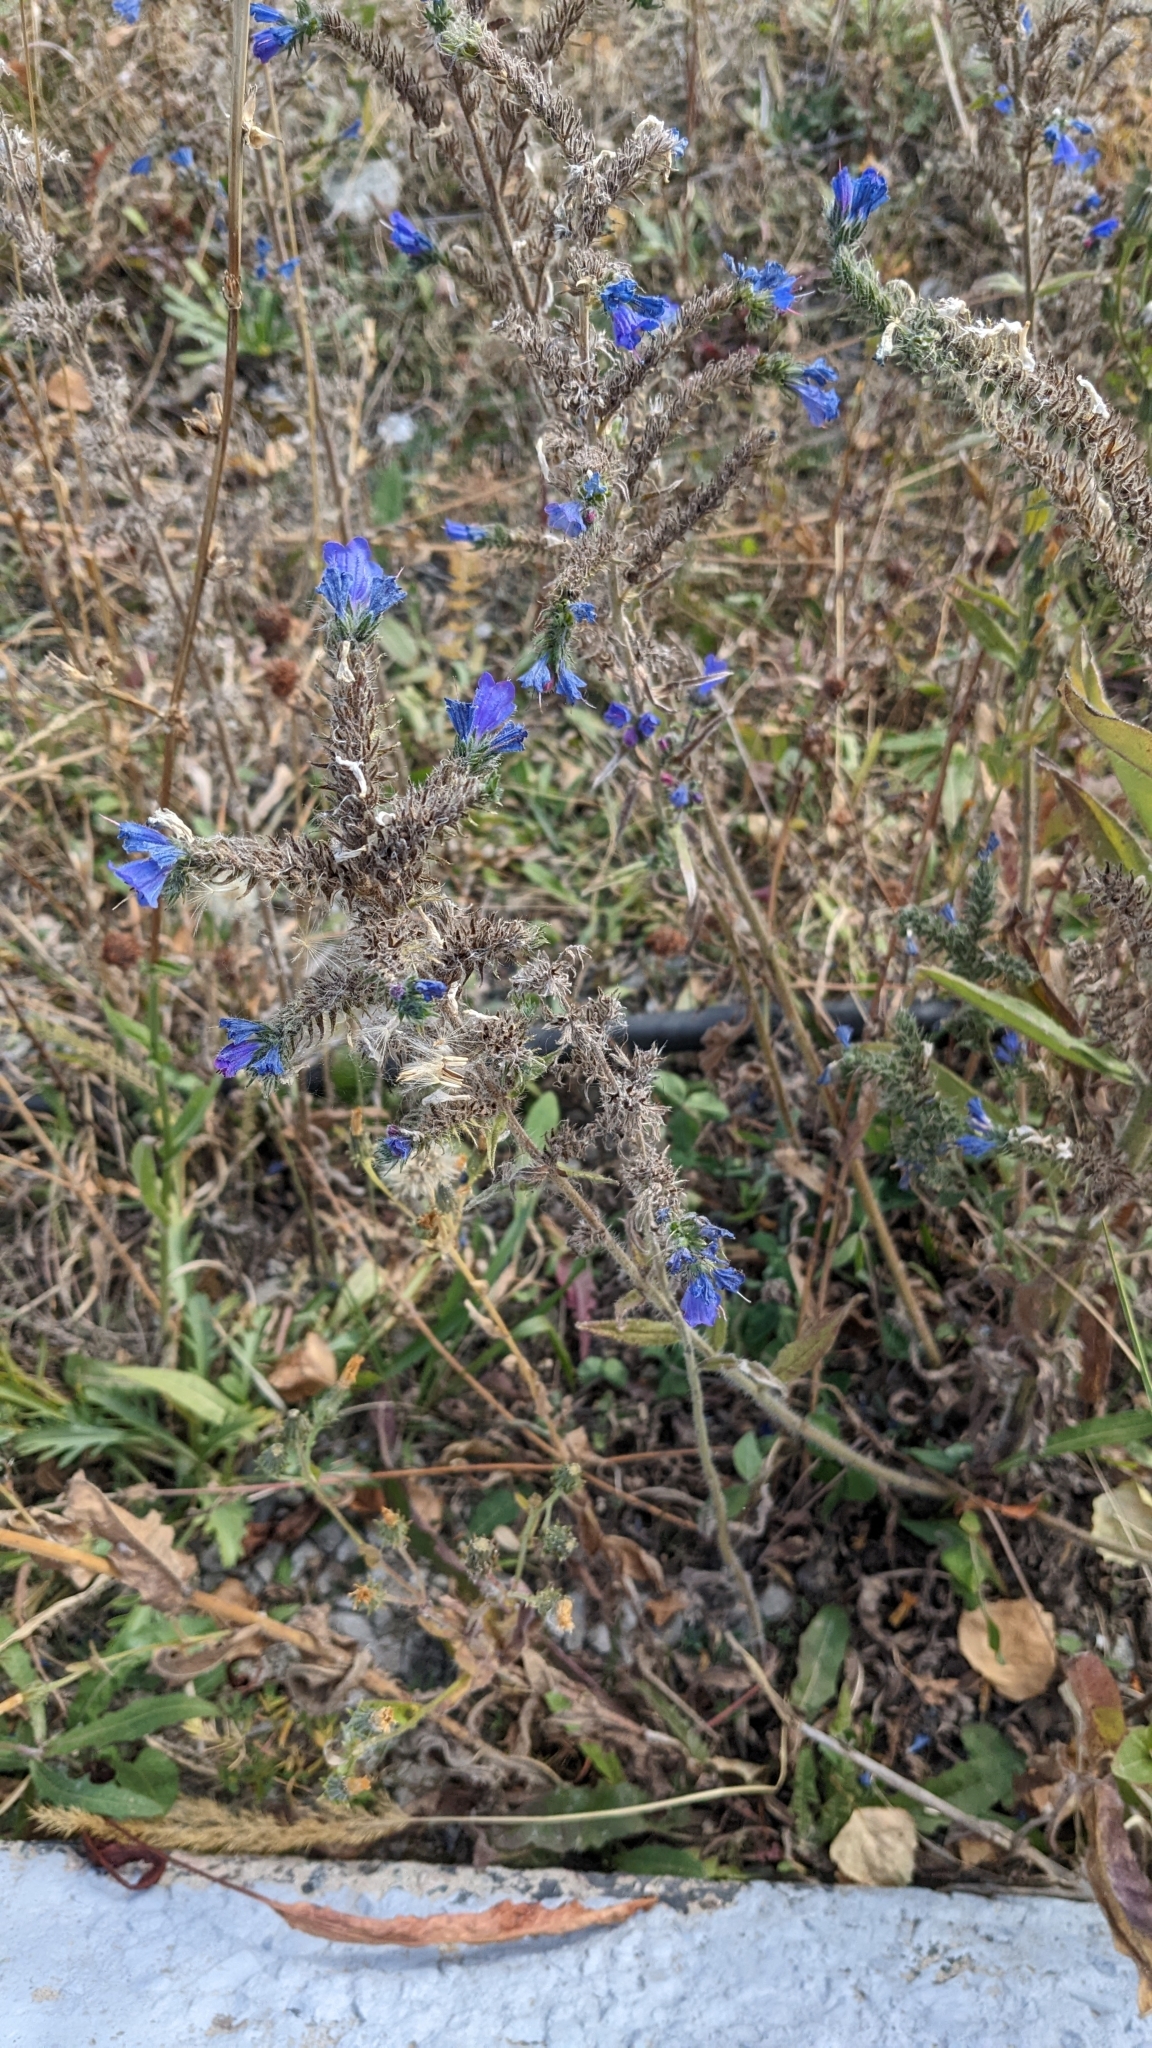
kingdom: Plantae
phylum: Tracheophyta
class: Magnoliopsida
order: Boraginales
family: Boraginaceae
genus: Echium
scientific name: Echium vulgare
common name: Common viper's bugloss
